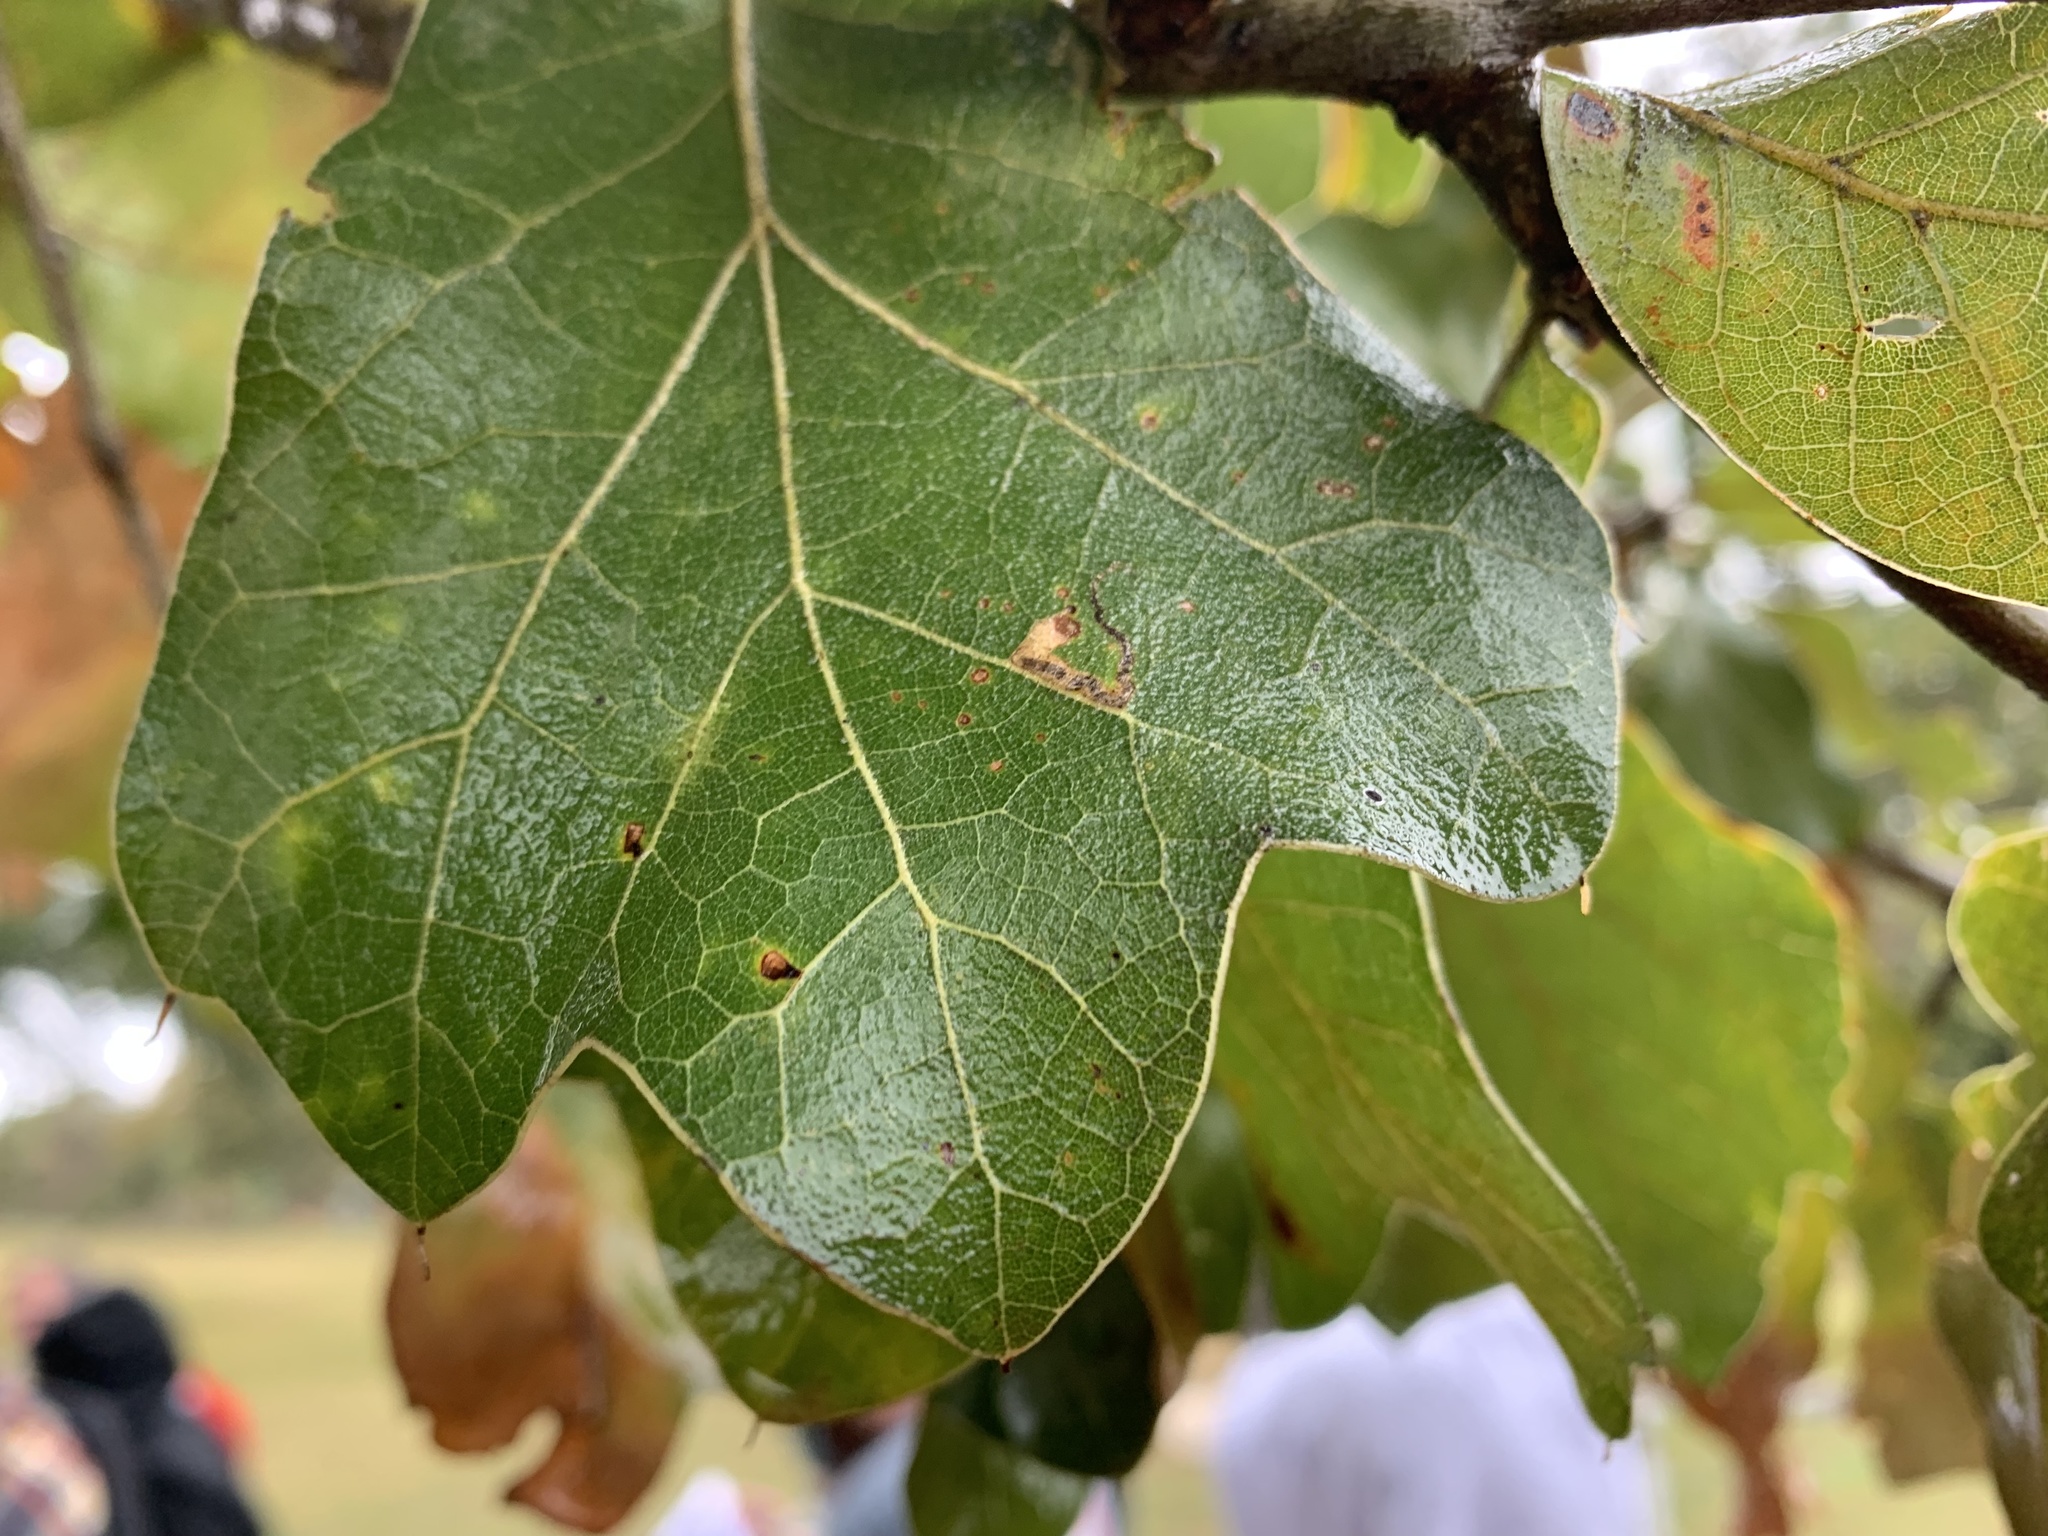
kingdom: Plantae
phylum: Tracheophyta
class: Magnoliopsida
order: Fagales
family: Fagaceae
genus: Quercus
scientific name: Quercus marilandica
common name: Blackjack oak
